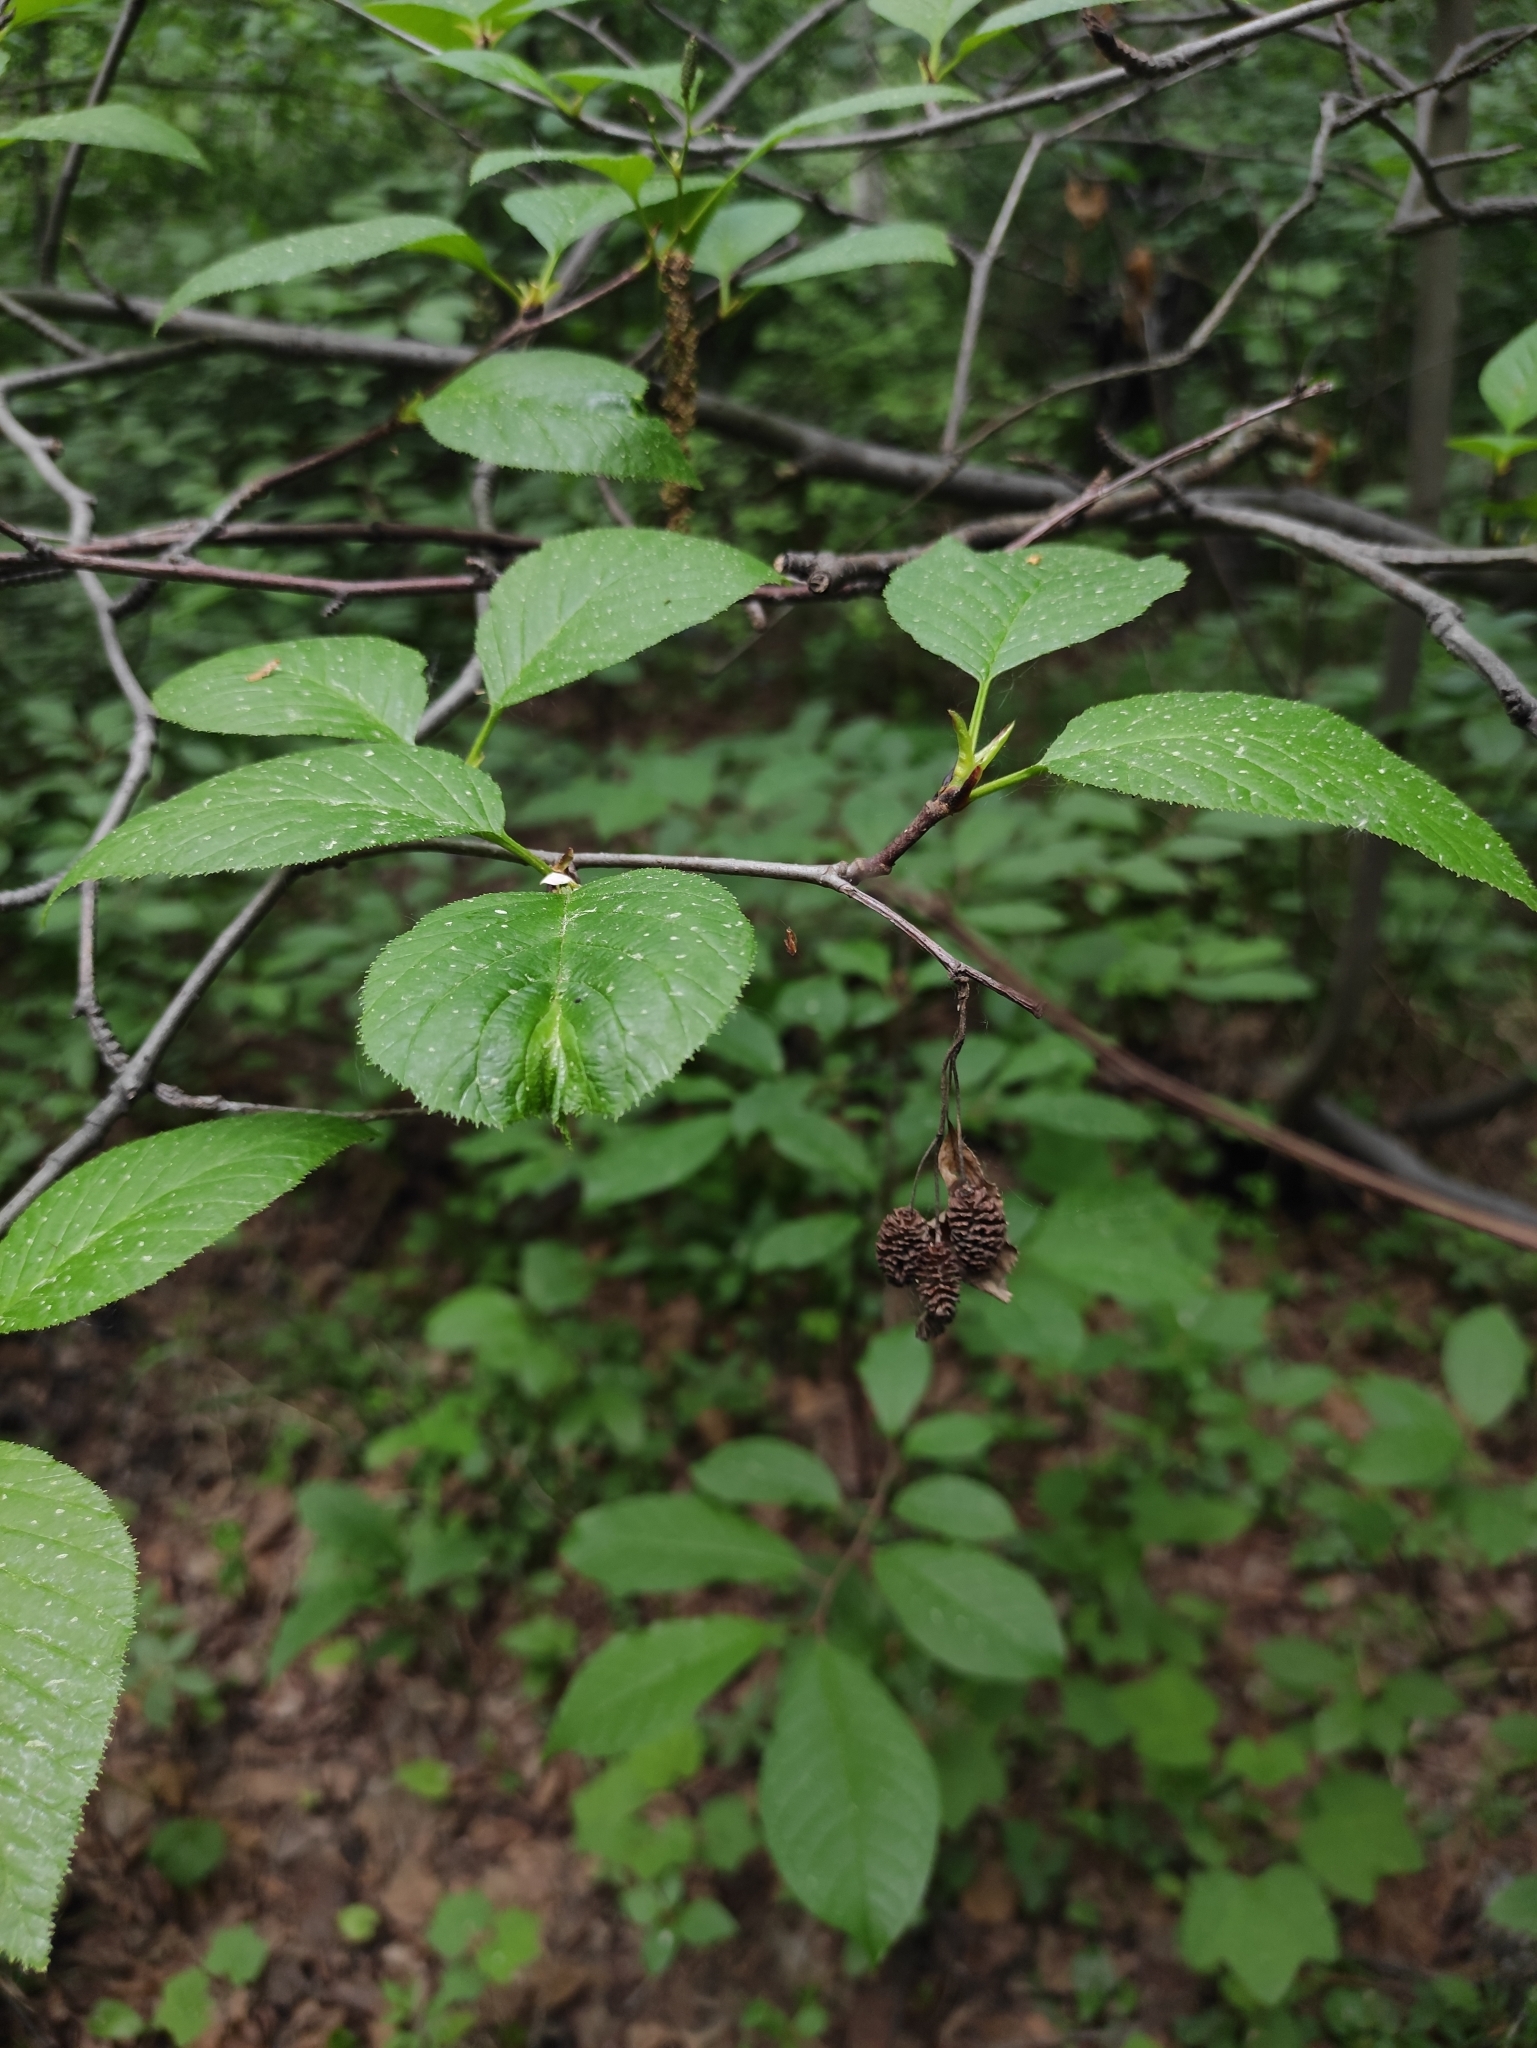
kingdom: Plantae
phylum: Tracheophyta
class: Magnoliopsida
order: Fagales
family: Betulaceae
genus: Alnus
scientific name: Alnus alnobetula
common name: Green alder
